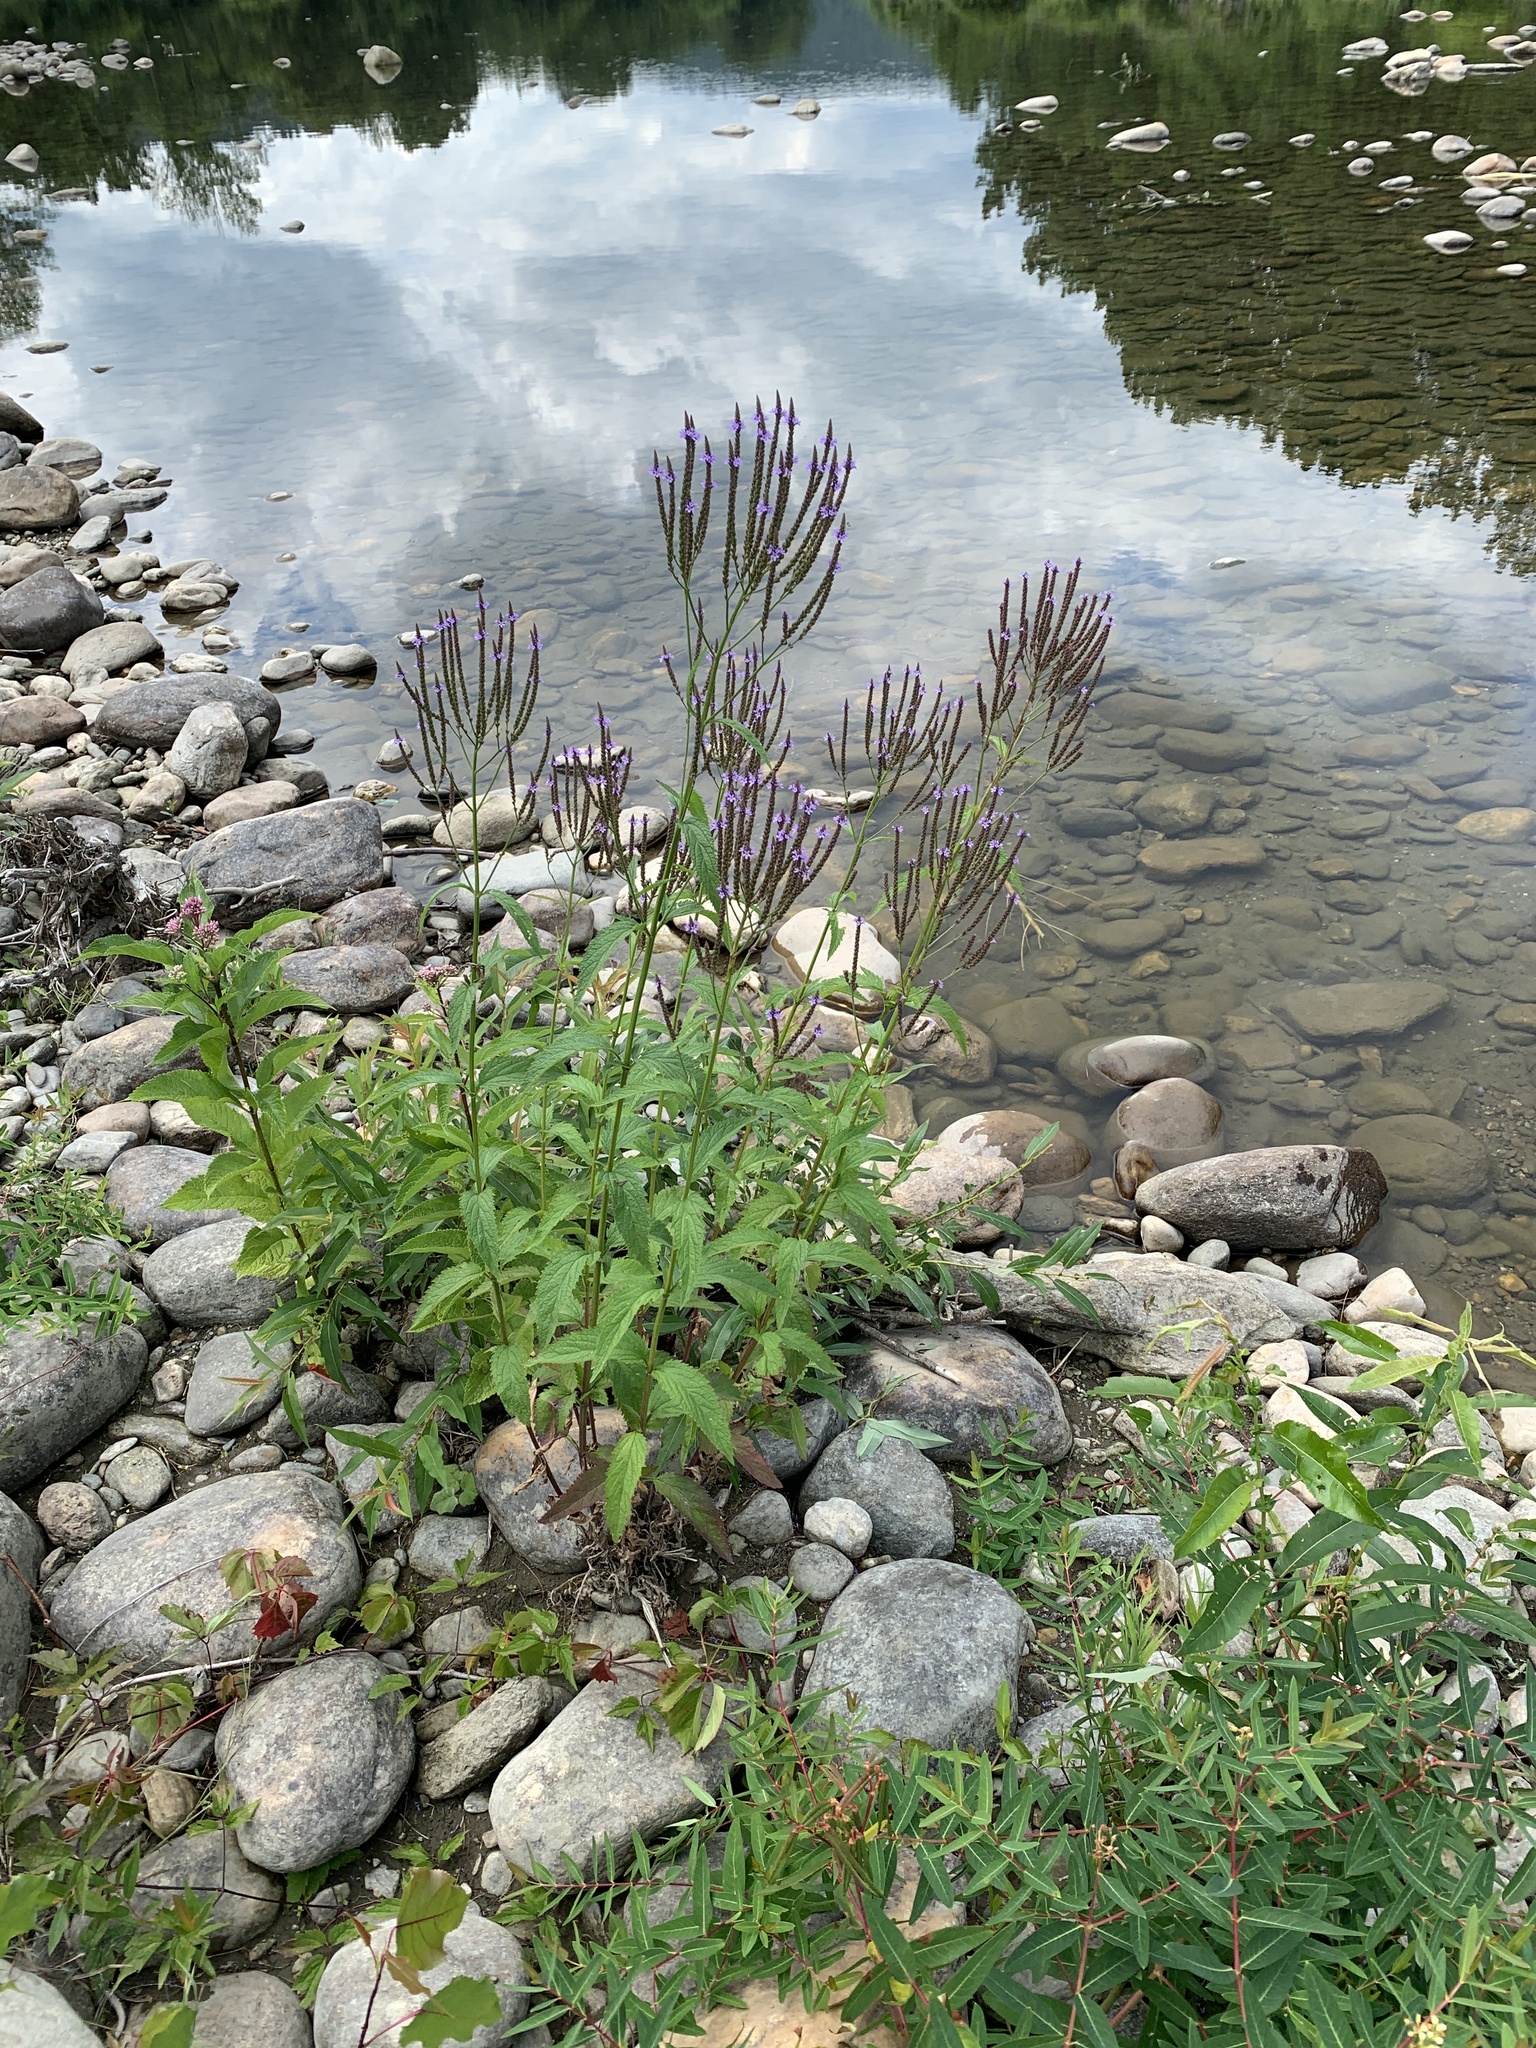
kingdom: Plantae
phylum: Tracheophyta
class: Magnoliopsida
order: Lamiales
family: Verbenaceae
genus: Verbena
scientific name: Verbena hastata
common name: American blue vervain
